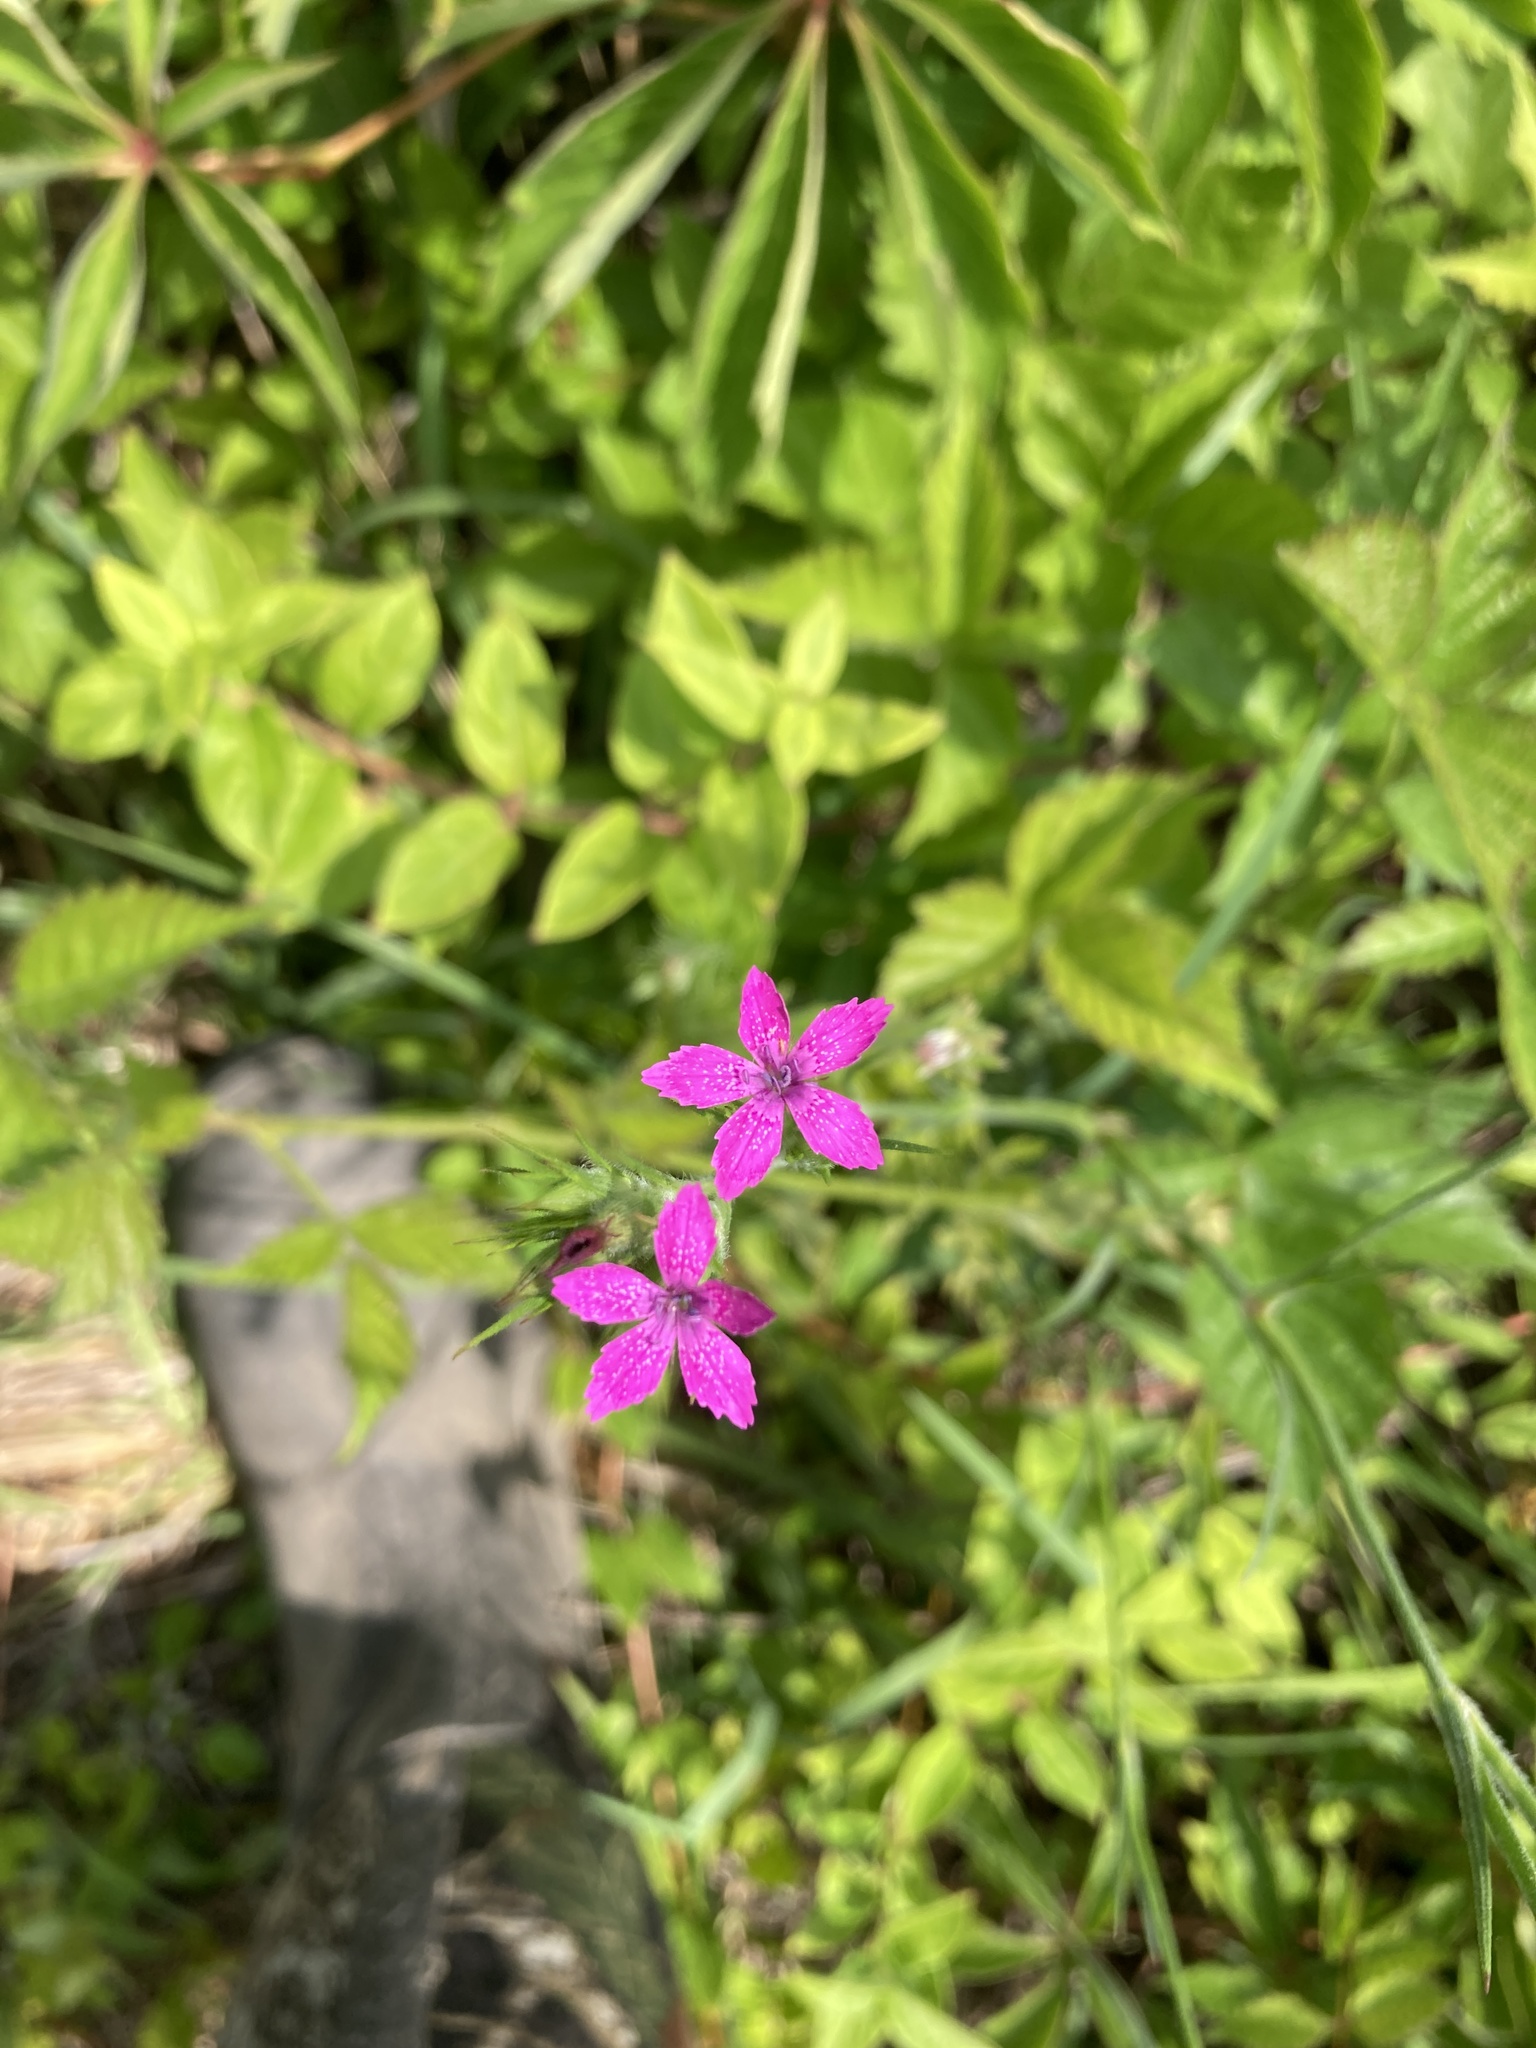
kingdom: Plantae
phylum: Tracheophyta
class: Magnoliopsida
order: Caryophyllales
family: Caryophyllaceae
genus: Dianthus
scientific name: Dianthus armeria
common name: Deptford pink
